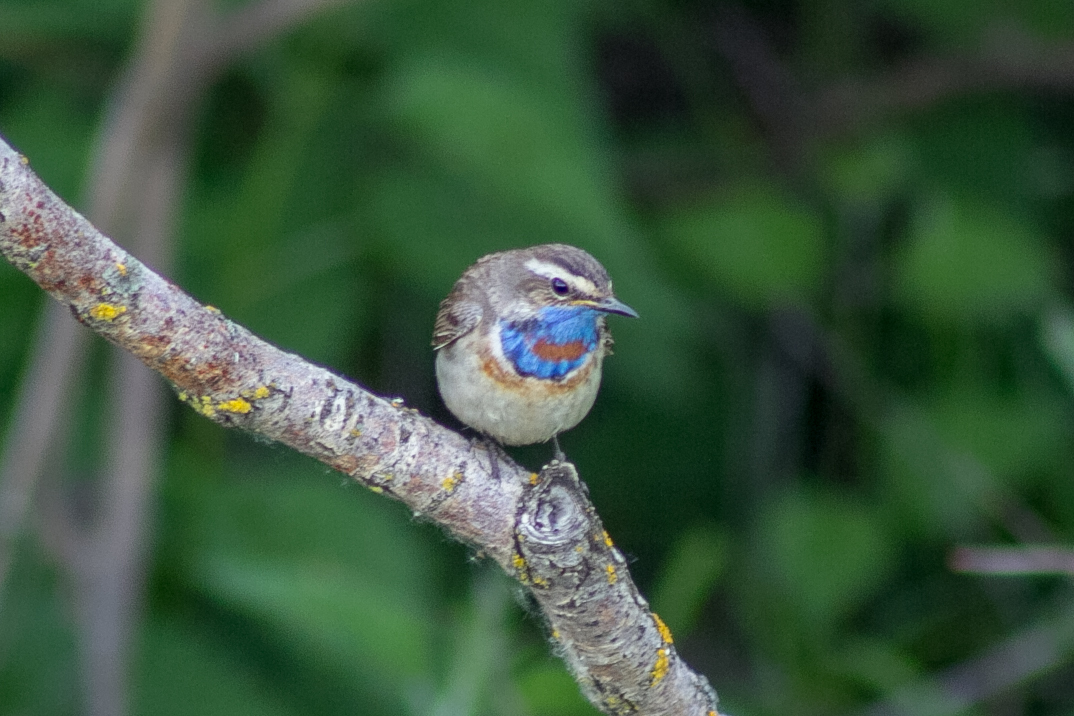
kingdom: Animalia
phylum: Chordata
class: Aves
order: Passeriformes
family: Muscicapidae
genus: Luscinia
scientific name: Luscinia svecica
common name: Bluethroat
